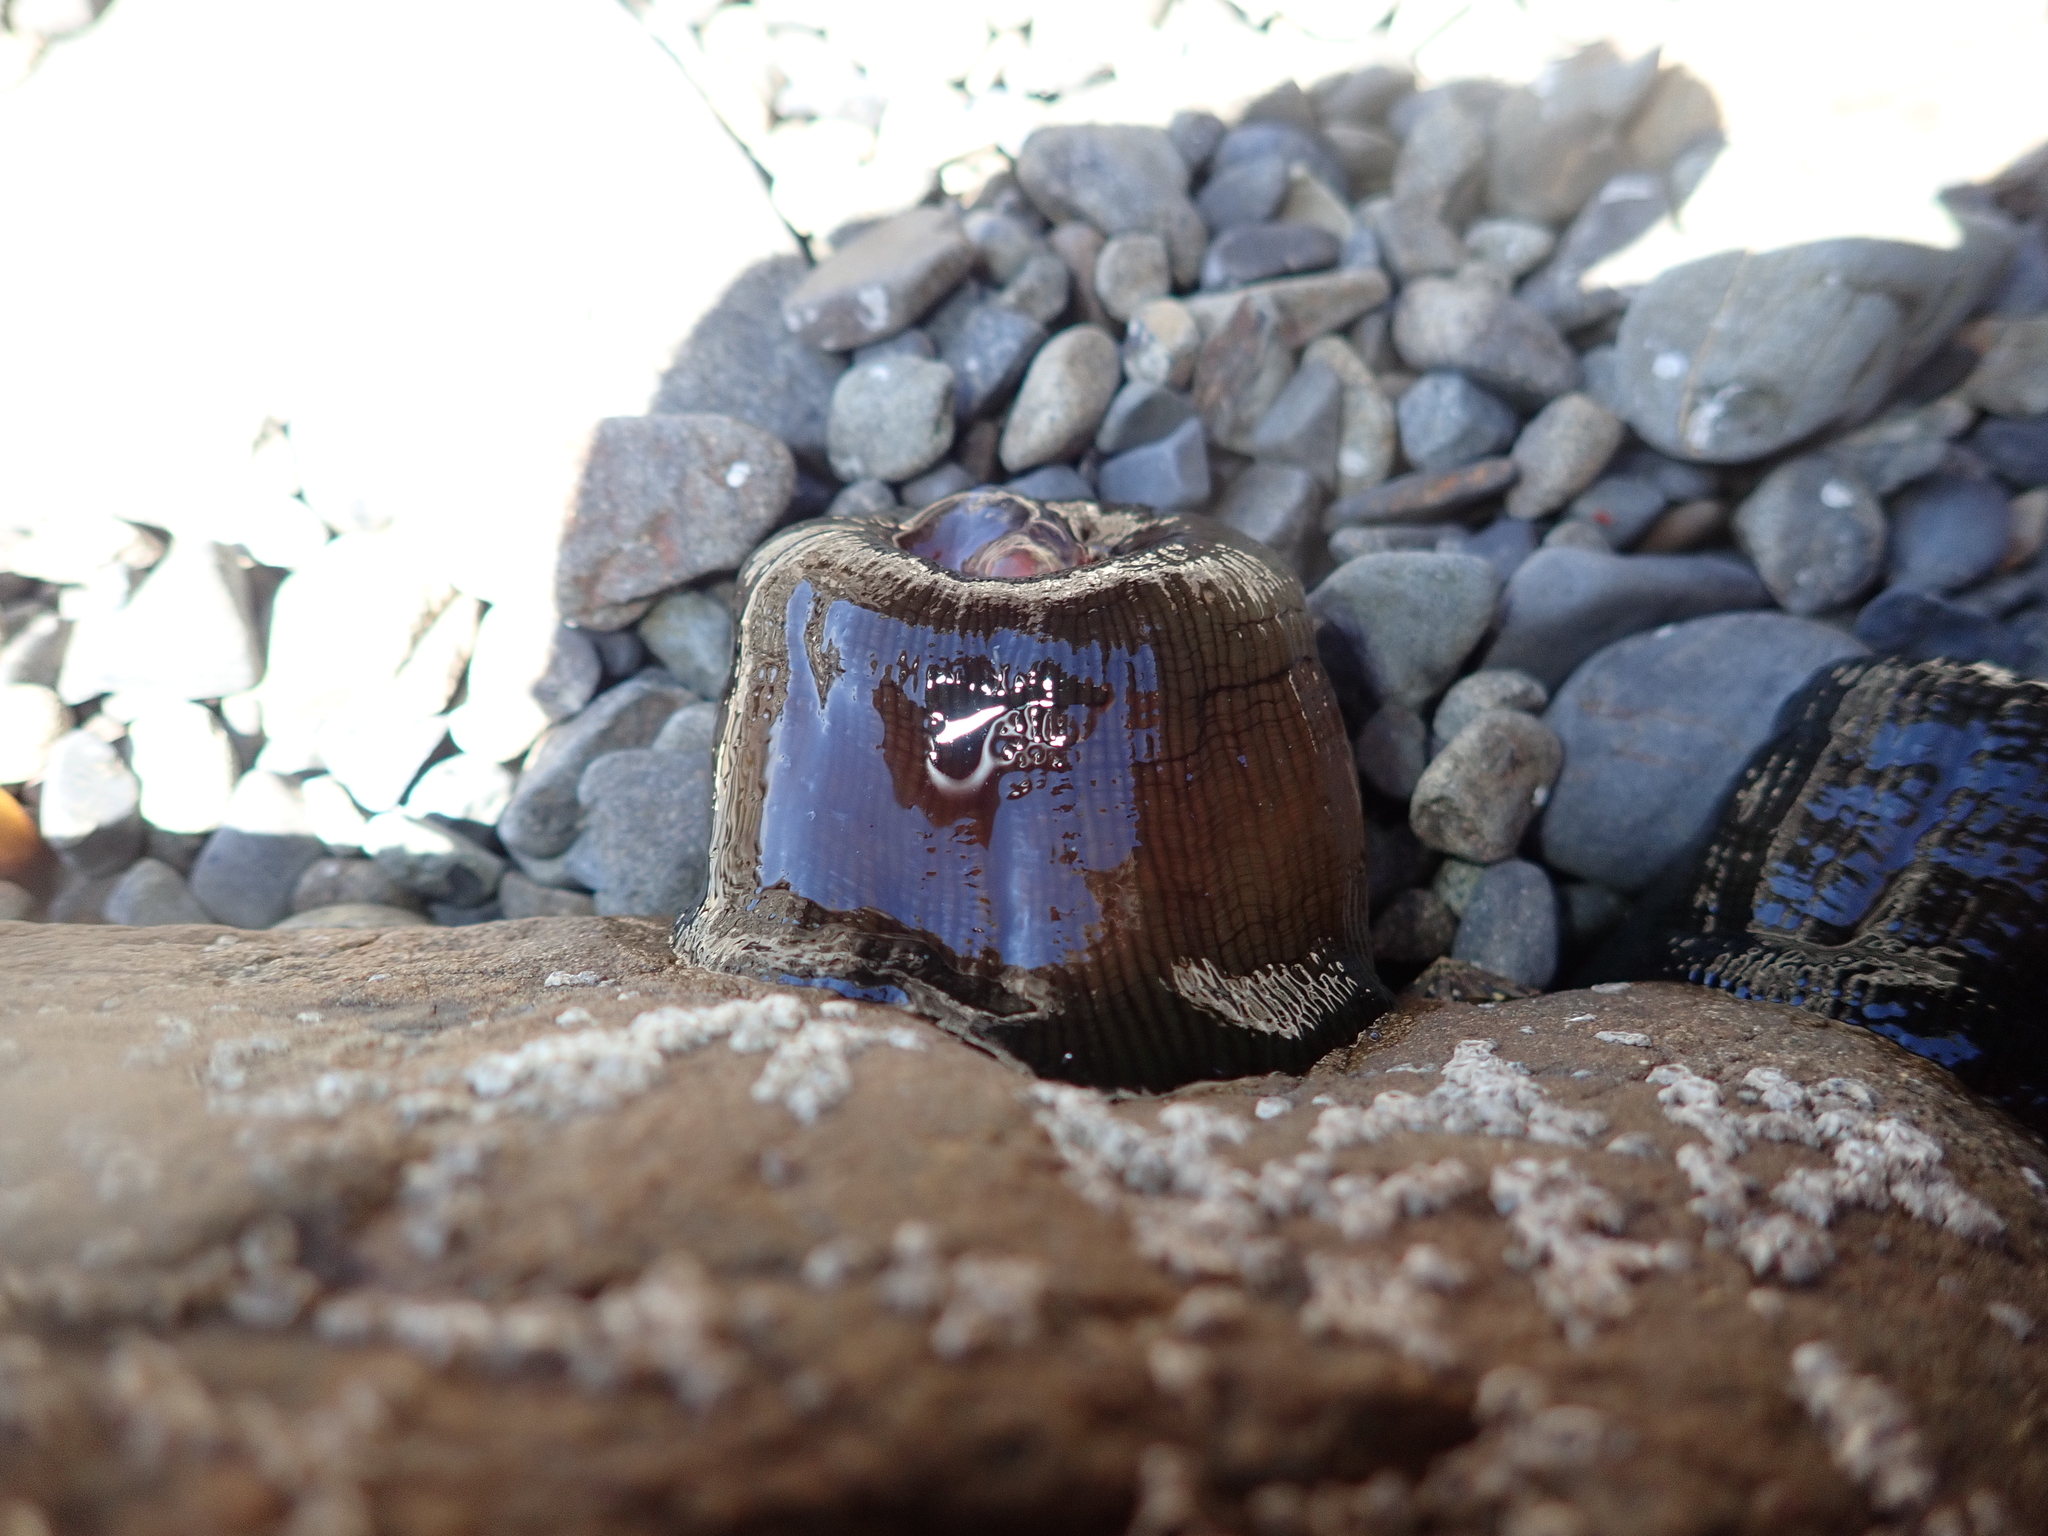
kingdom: Animalia
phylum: Cnidaria
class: Anthozoa
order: Actiniaria
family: Actiniidae
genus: Actinia
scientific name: Actinia tenebrosa
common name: Waratah anemone
